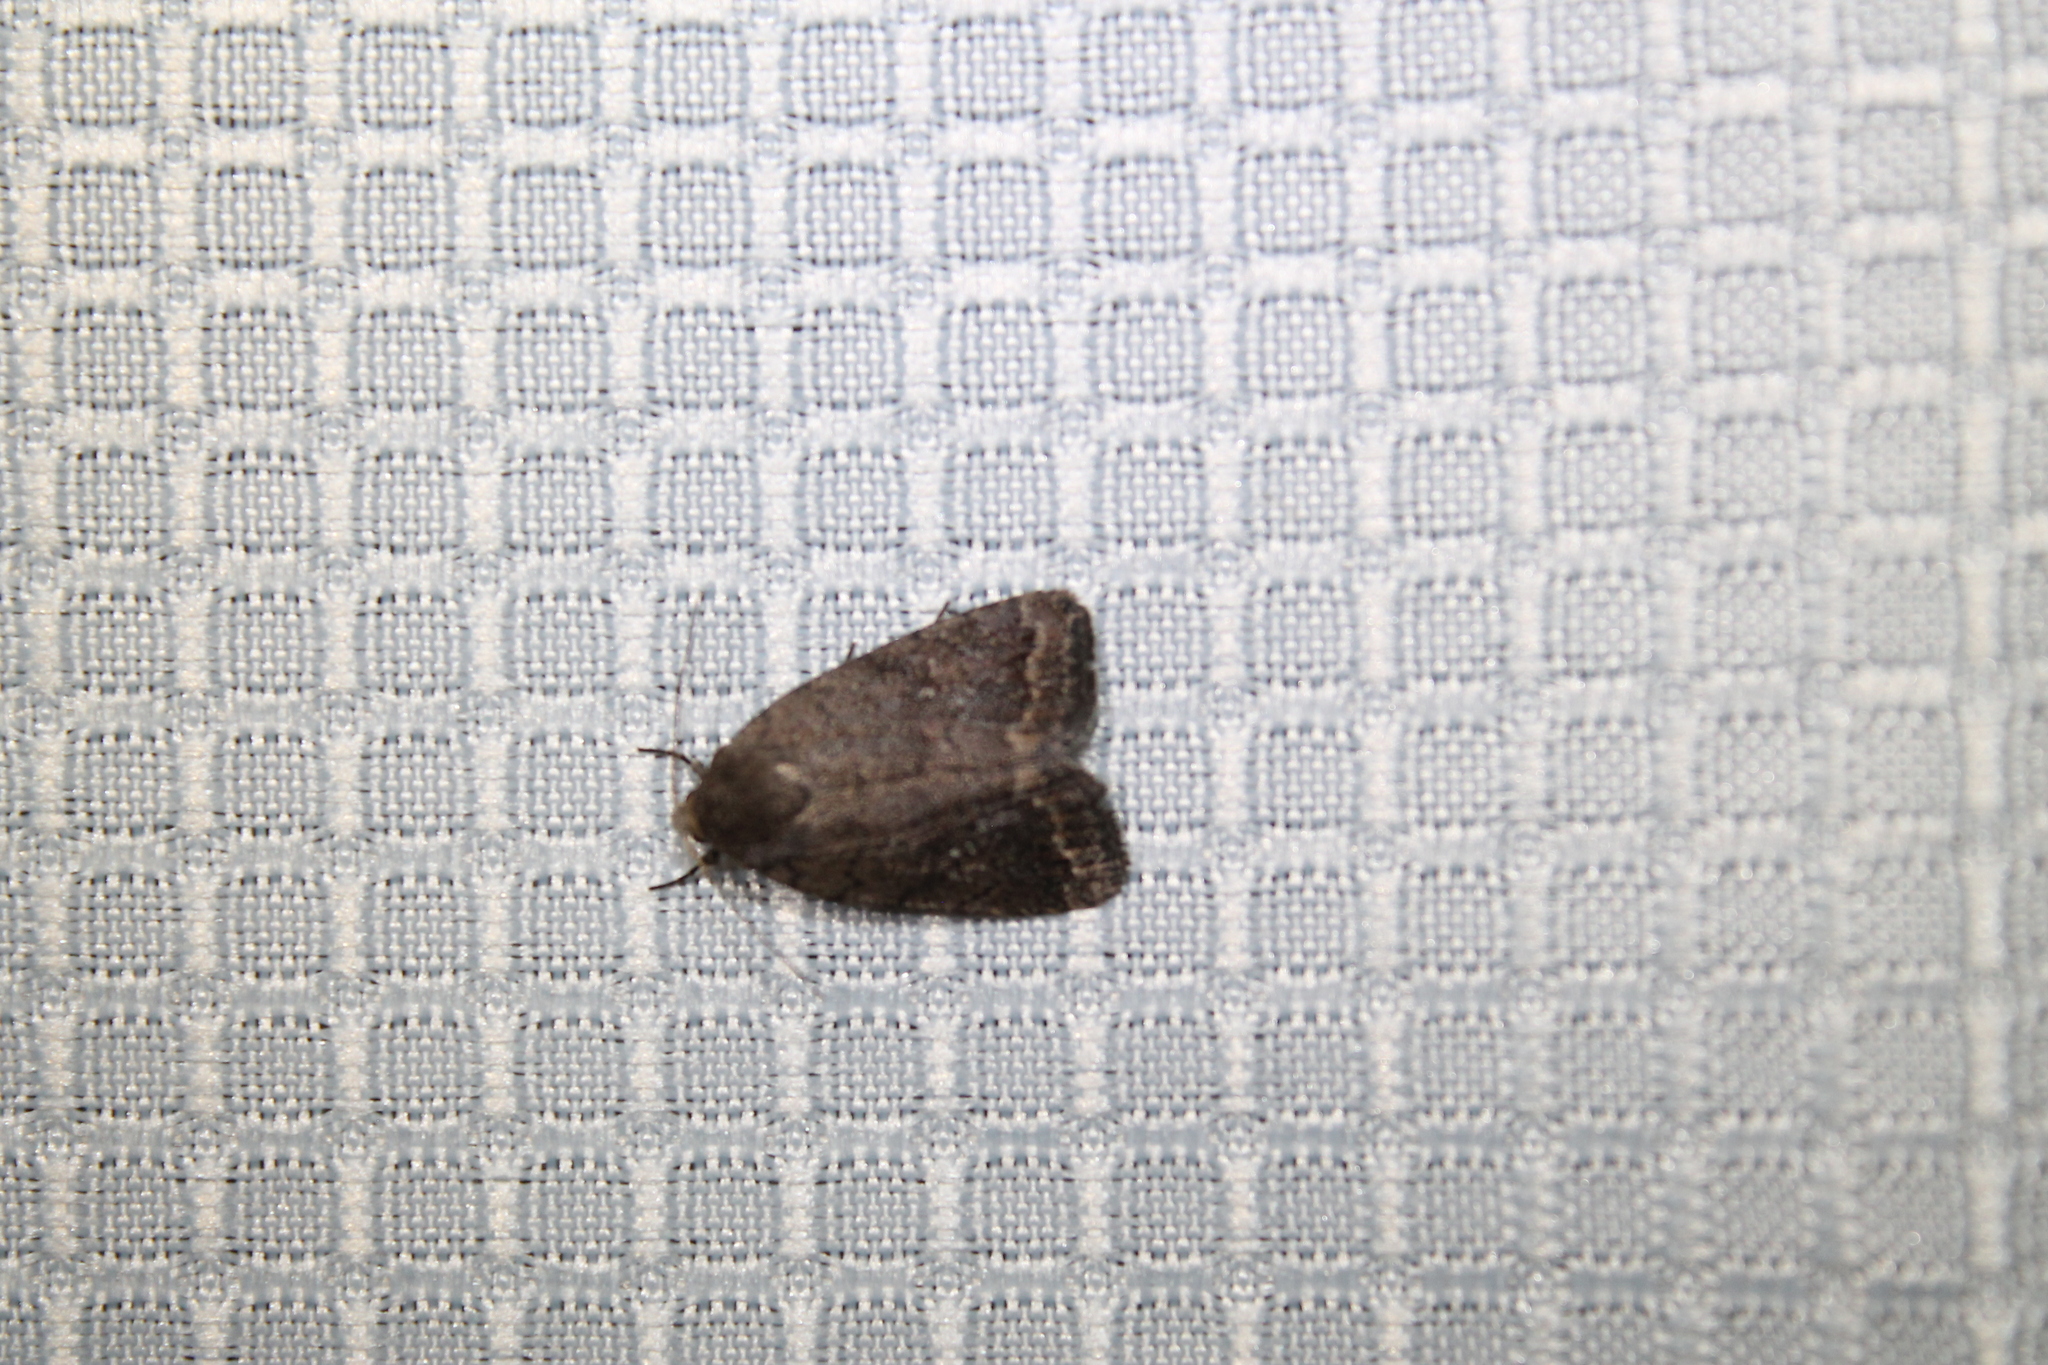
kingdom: Animalia
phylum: Arthropoda
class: Insecta
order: Lepidoptera
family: Noctuidae
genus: Athetis
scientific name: Athetis tarda
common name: Slowpoke moth
